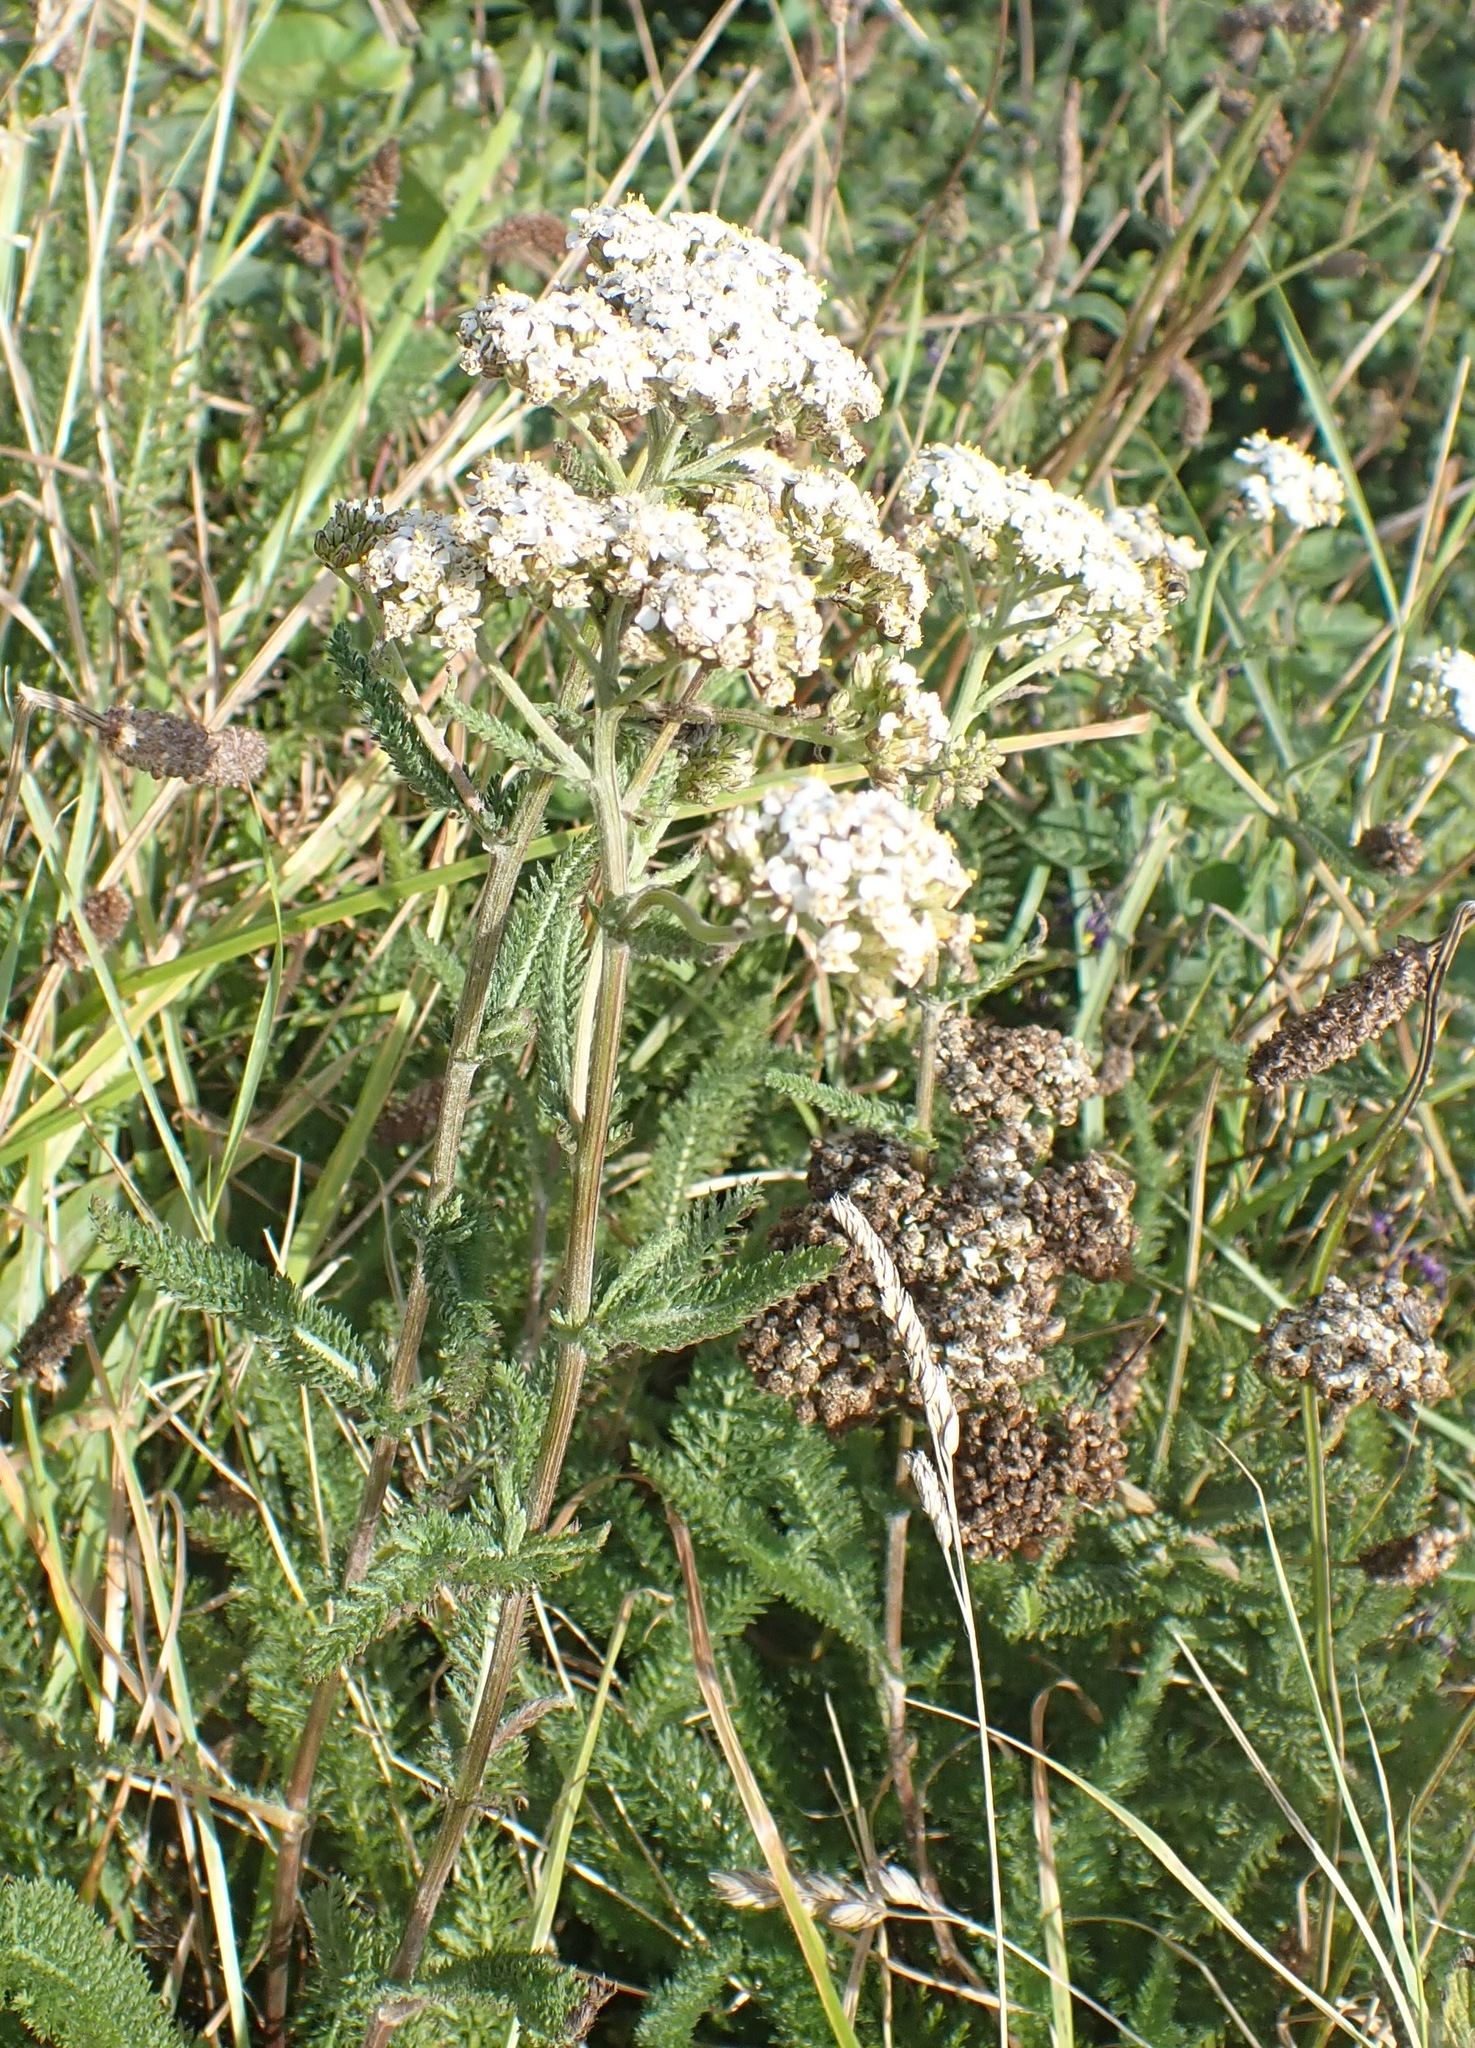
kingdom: Plantae
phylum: Tracheophyta
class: Magnoliopsida
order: Asterales
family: Asteraceae
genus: Achillea
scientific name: Achillea millefolium
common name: Yarrow
